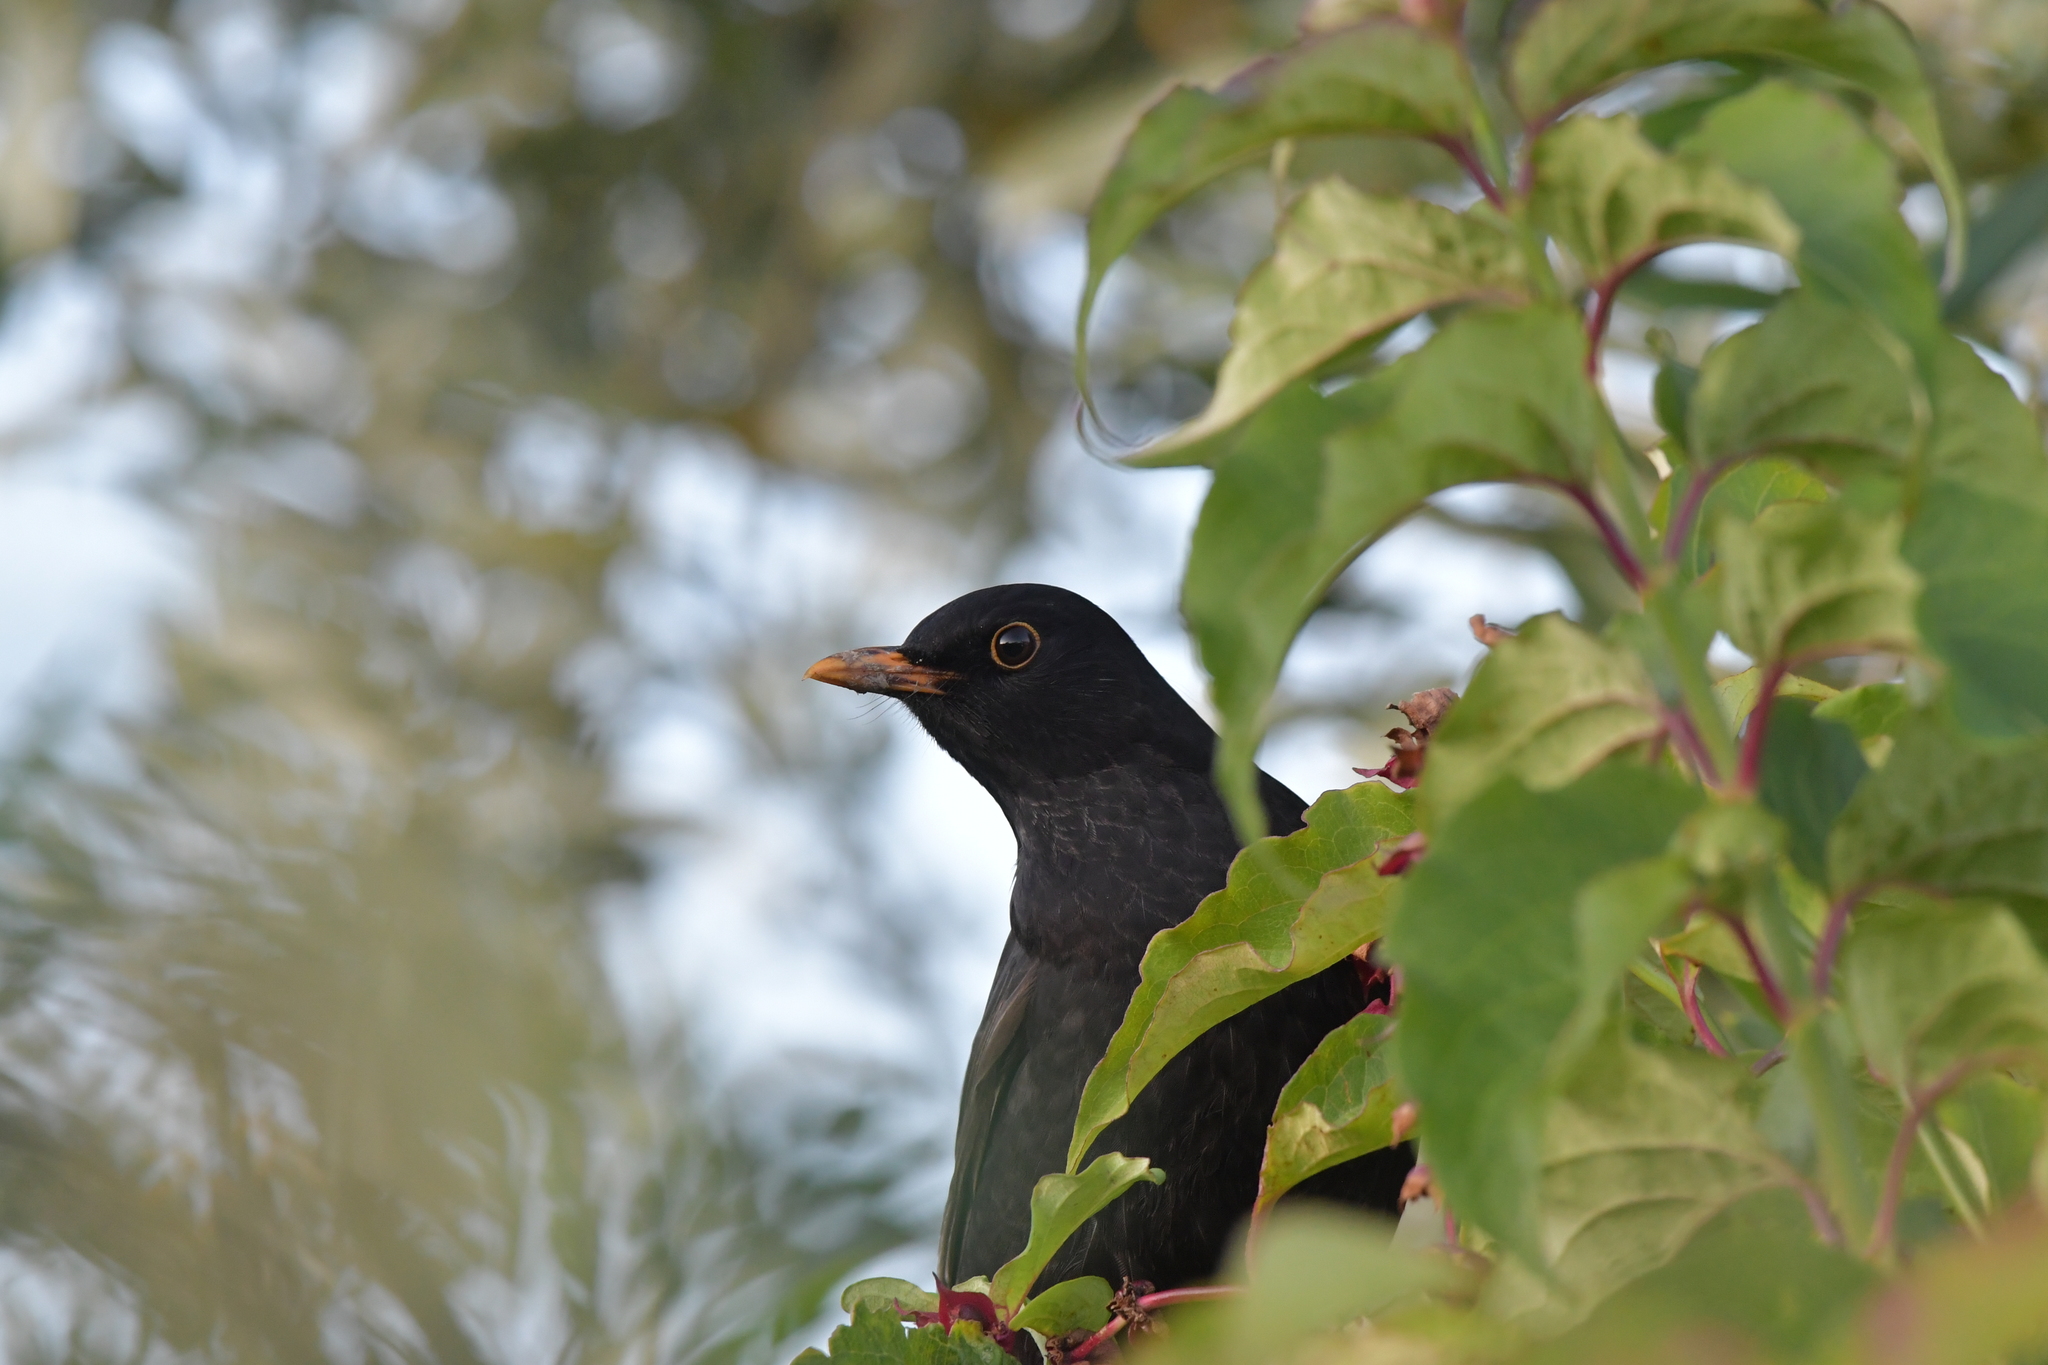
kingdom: Animalia
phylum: Chordata
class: Aves
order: Passeriformes
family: Turdidae
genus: Turdus
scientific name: Turdus merula
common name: Common blackbird
